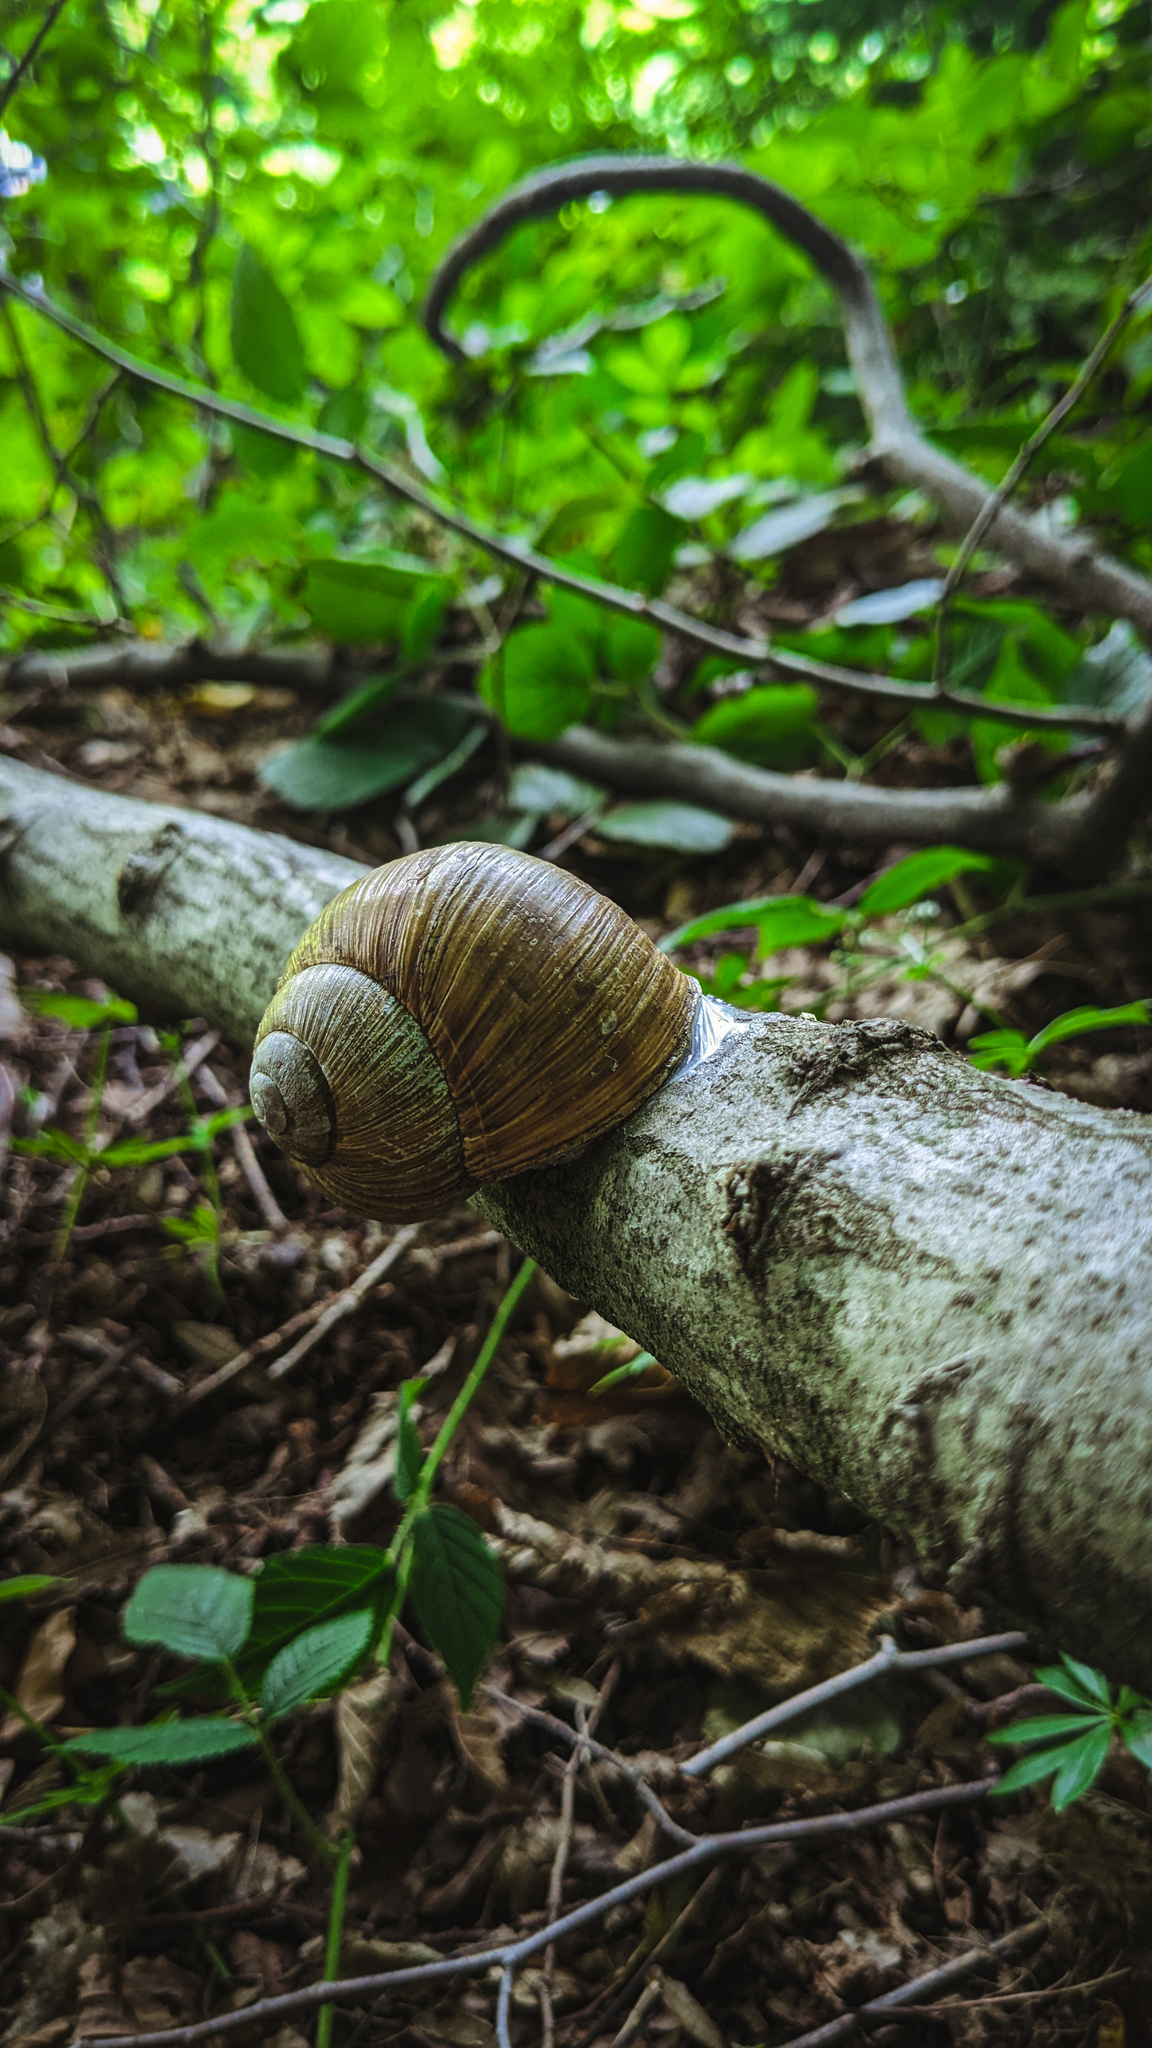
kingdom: Animalia
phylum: Mollusca
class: Gastropoda
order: Stylommatophora
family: Helicidae
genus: Helix
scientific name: Helix pomatia
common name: Roman snail
